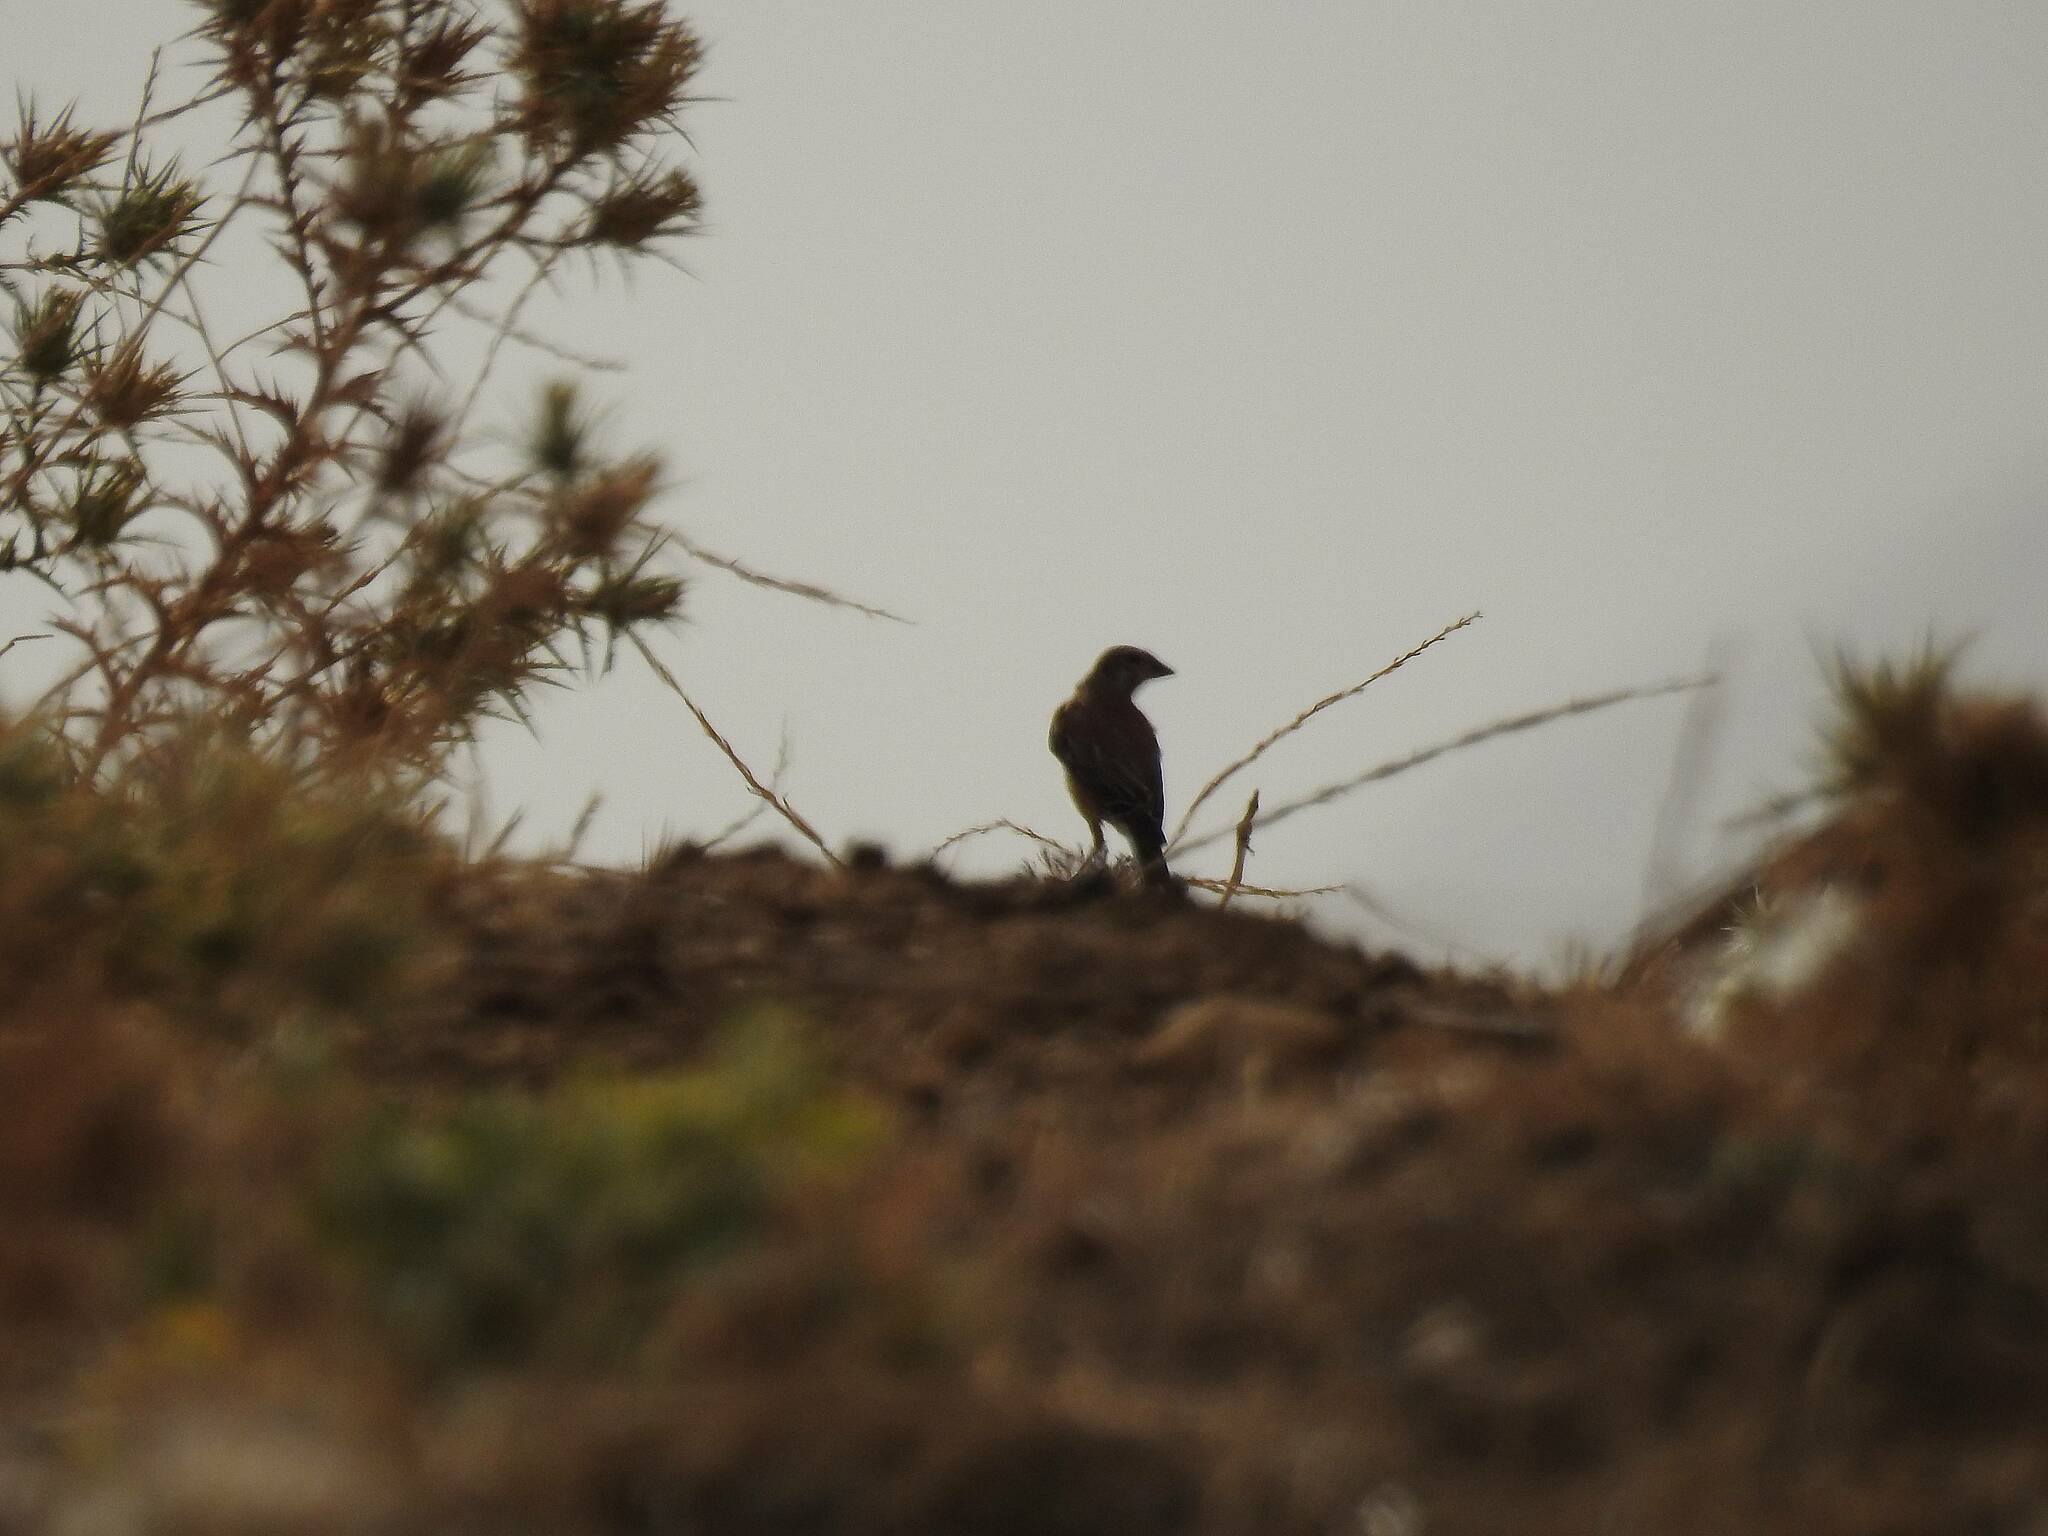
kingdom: Animalia
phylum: Chordata
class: Aves
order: Passeriformes
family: Fringillidae
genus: Linaria
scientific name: Linaria cannabina
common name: Common linnet
